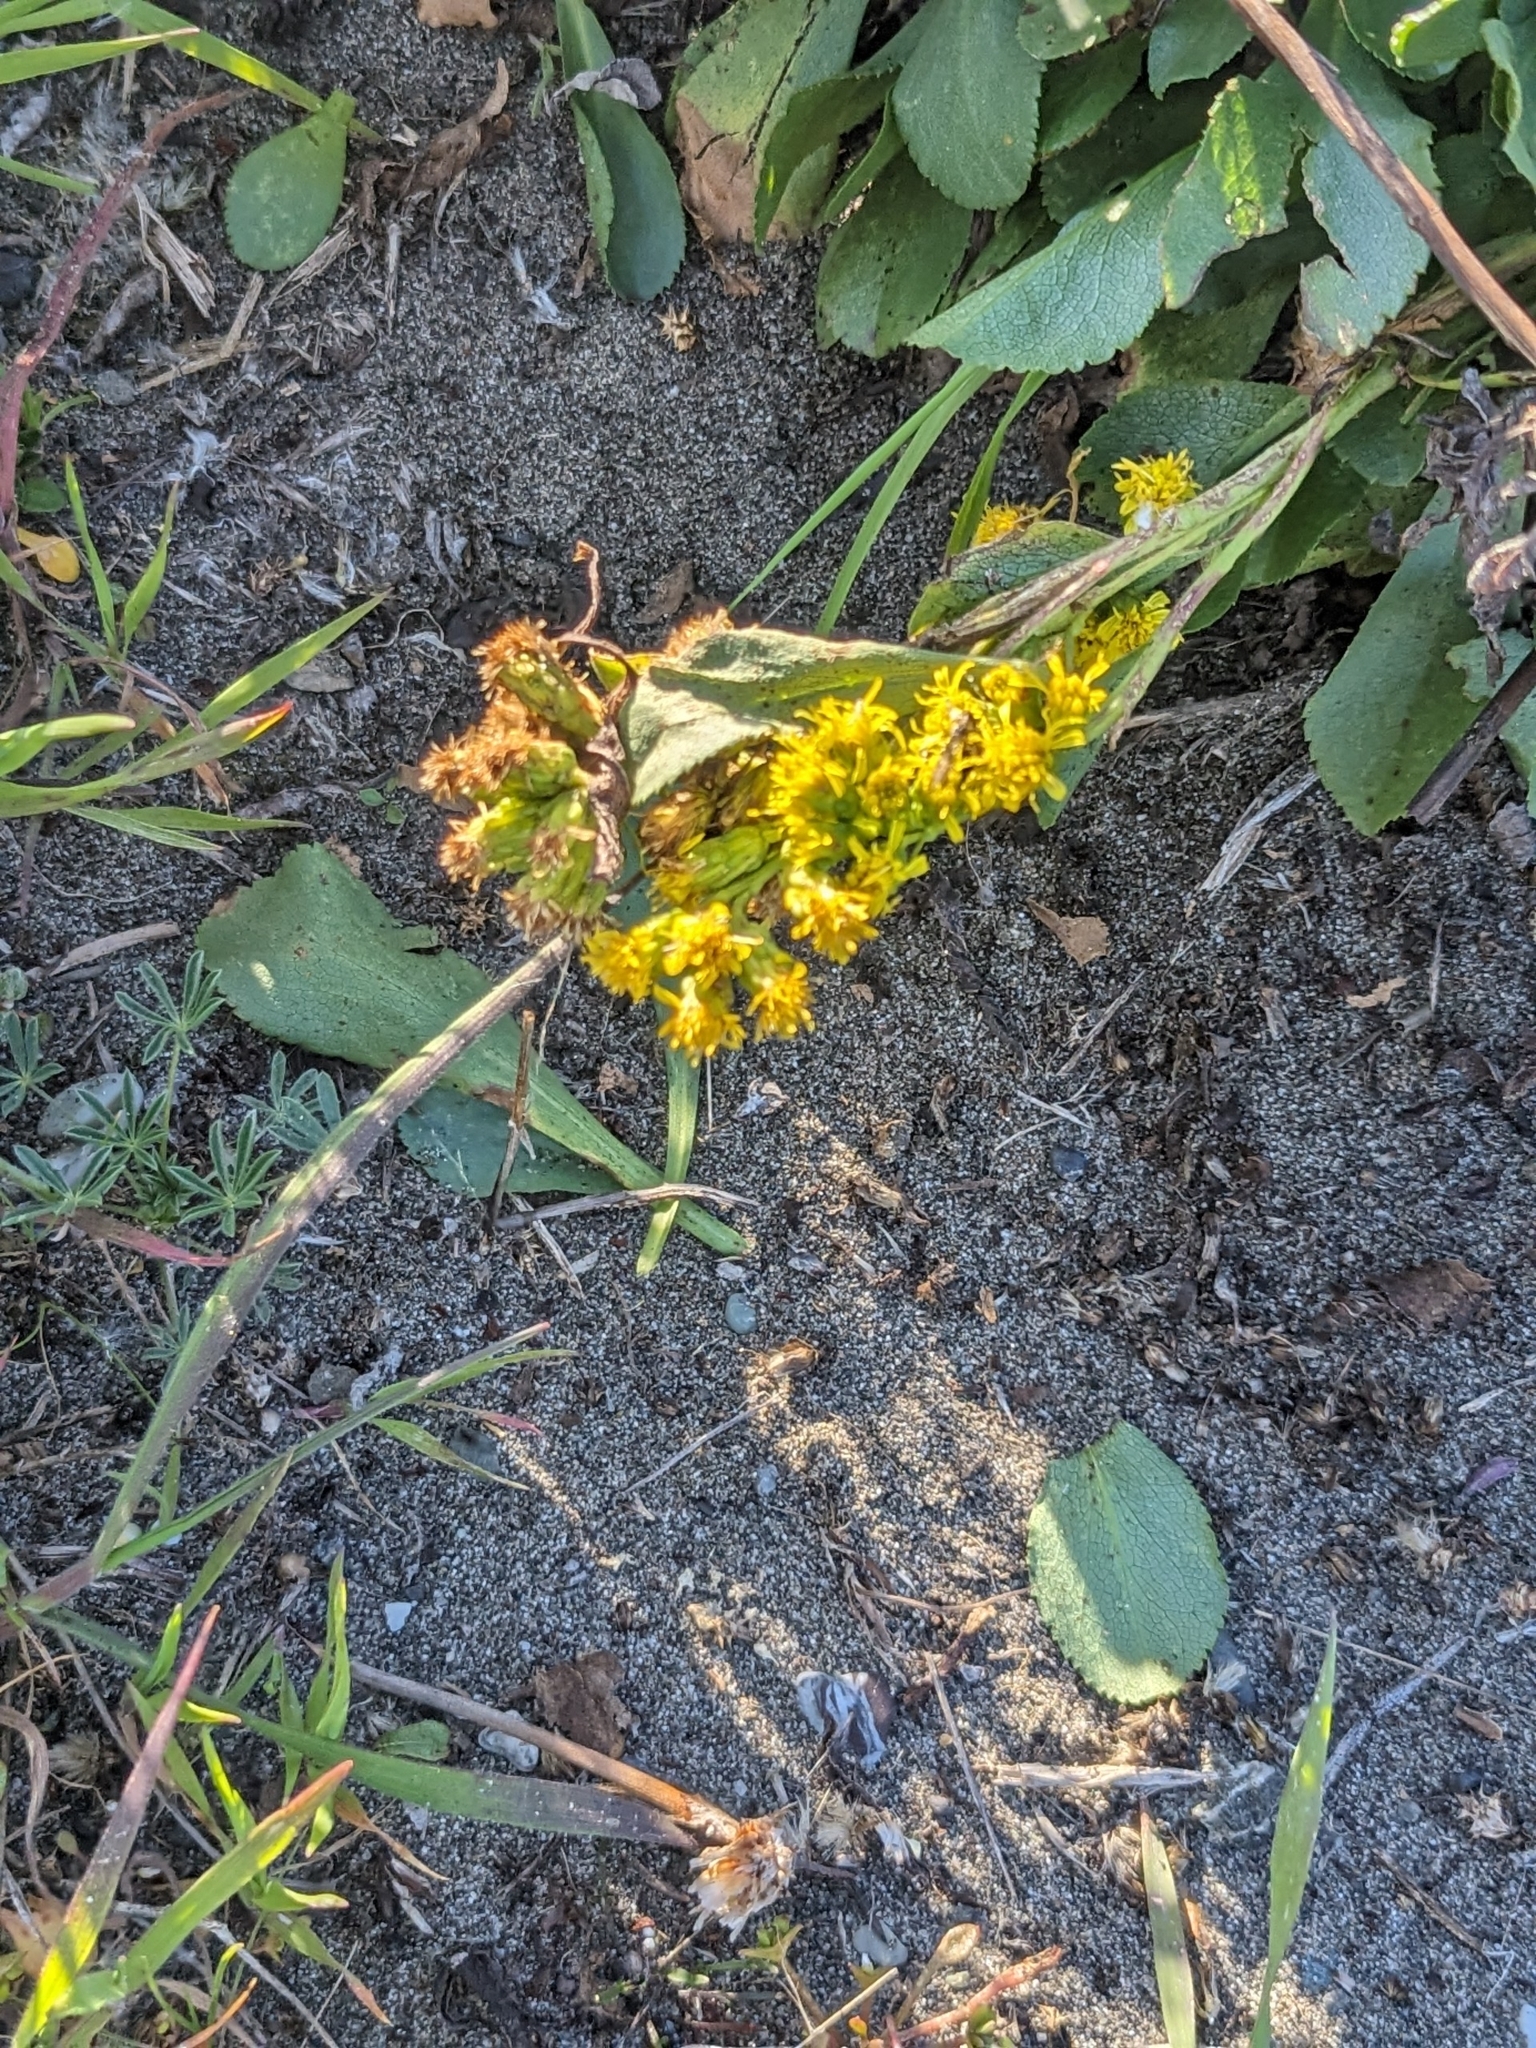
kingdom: Plantae
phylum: Tracheophyta
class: Magnoliopsida
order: Asterales
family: Asteraceae
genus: Solidago
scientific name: Solidago spathulata
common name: Coast goldenrod
